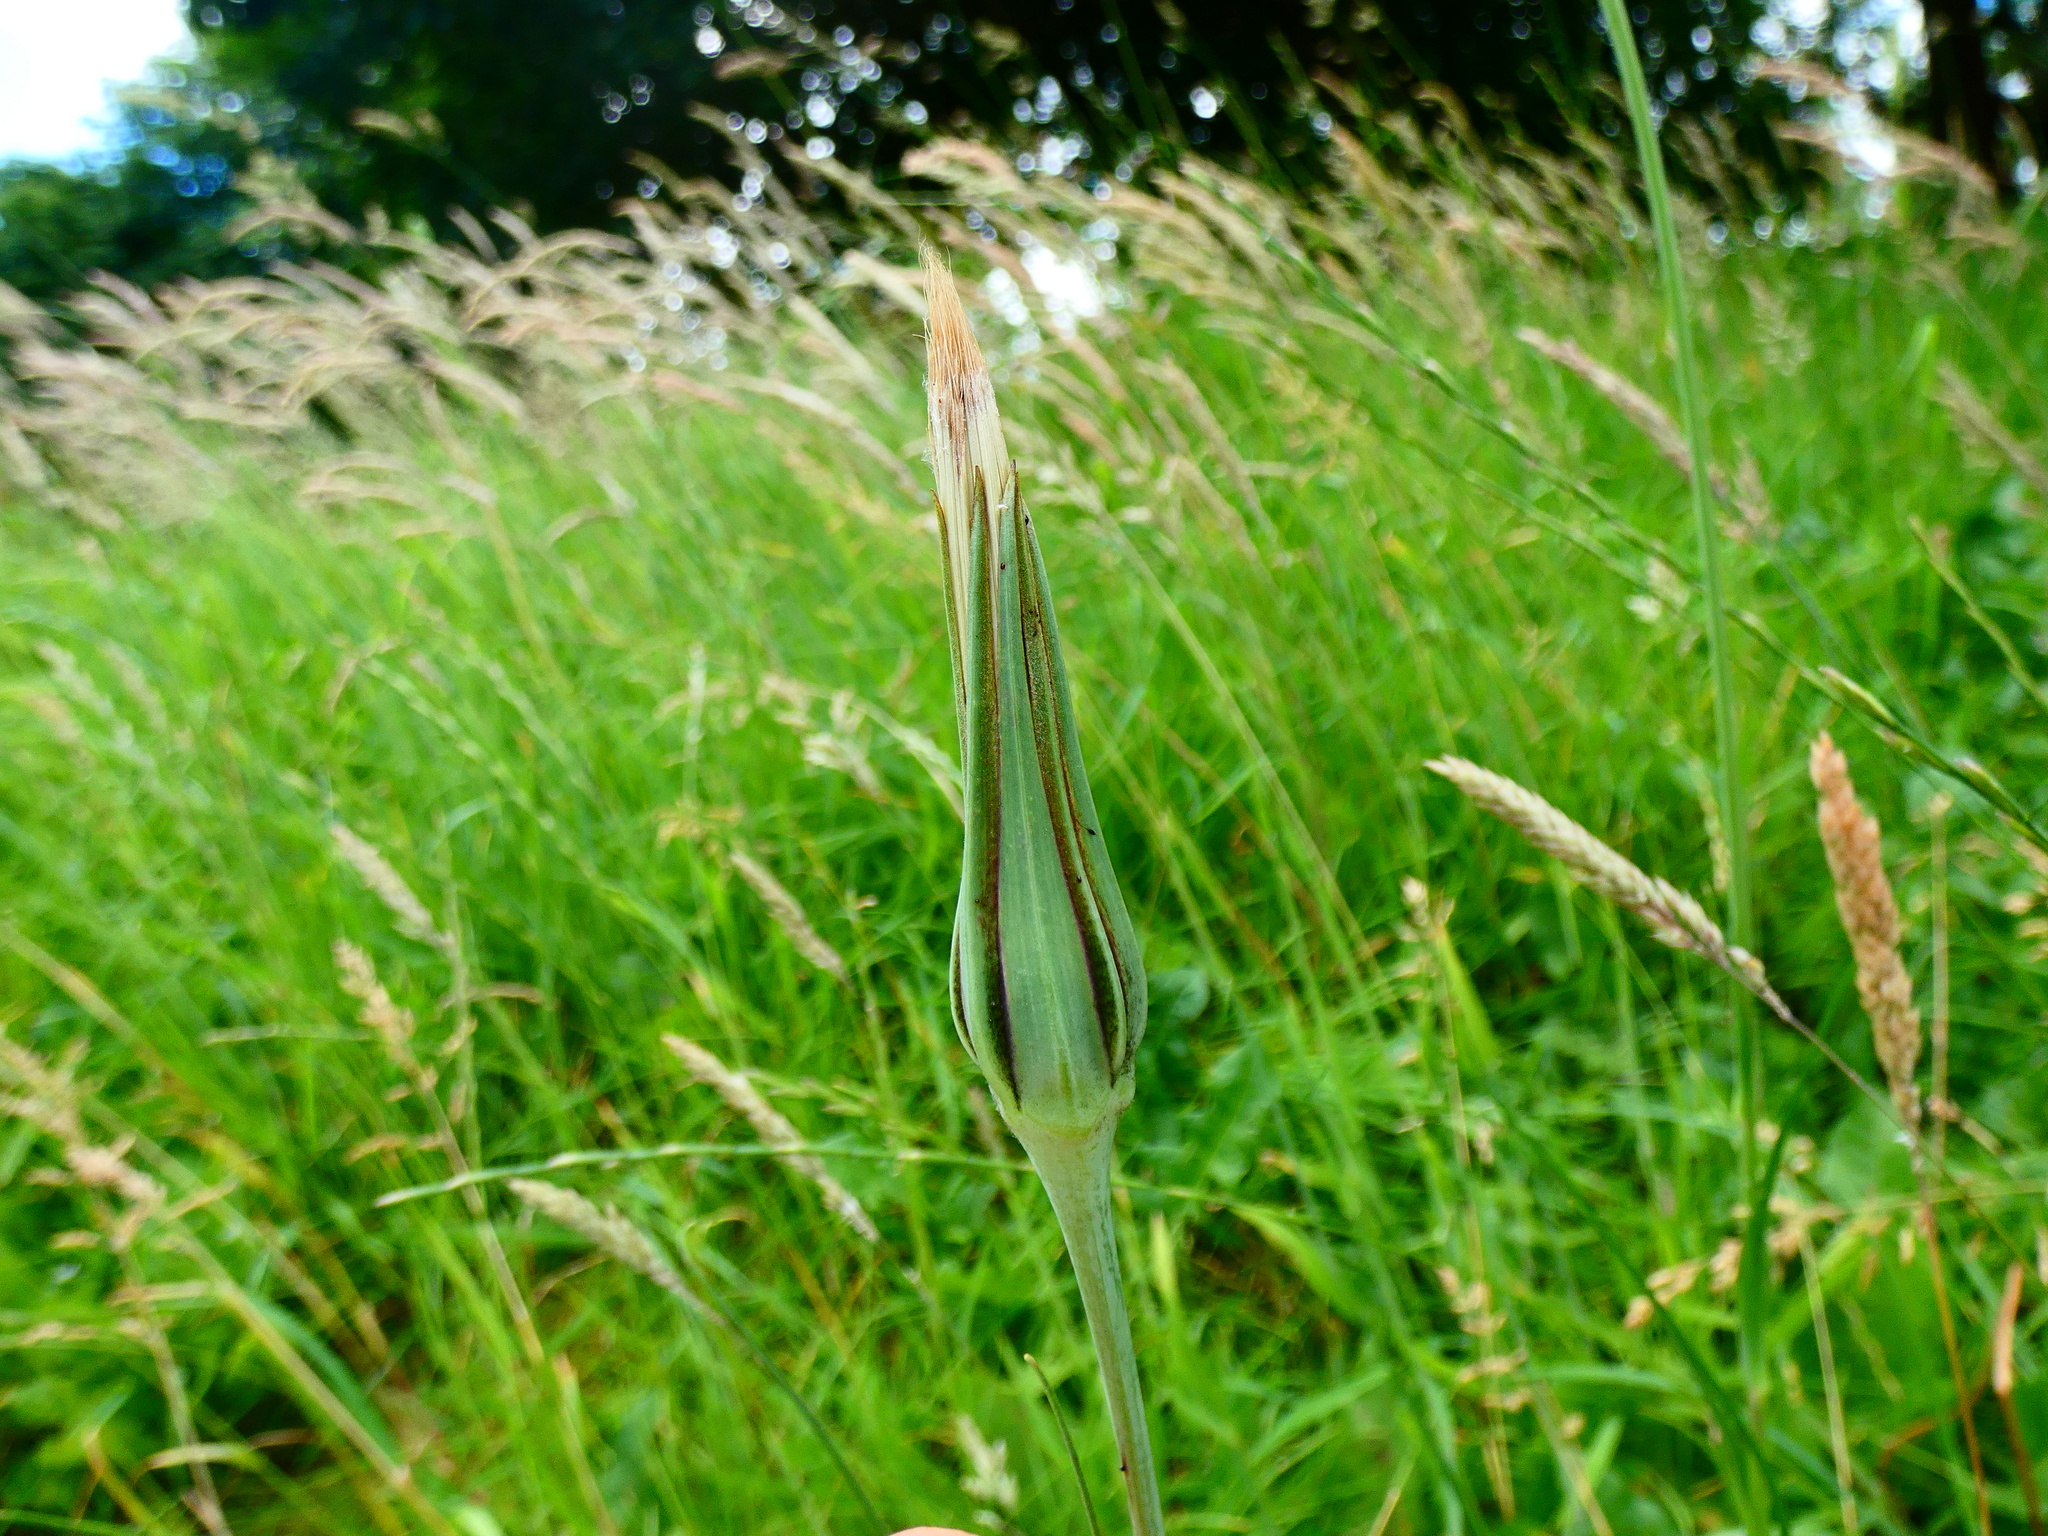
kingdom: Plantae
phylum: Tracheophyta
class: Magnoliopsida
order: Asterales
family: Asteraceae
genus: Tragopogon
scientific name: Tragopogon pratensis
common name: Goat's-beard
